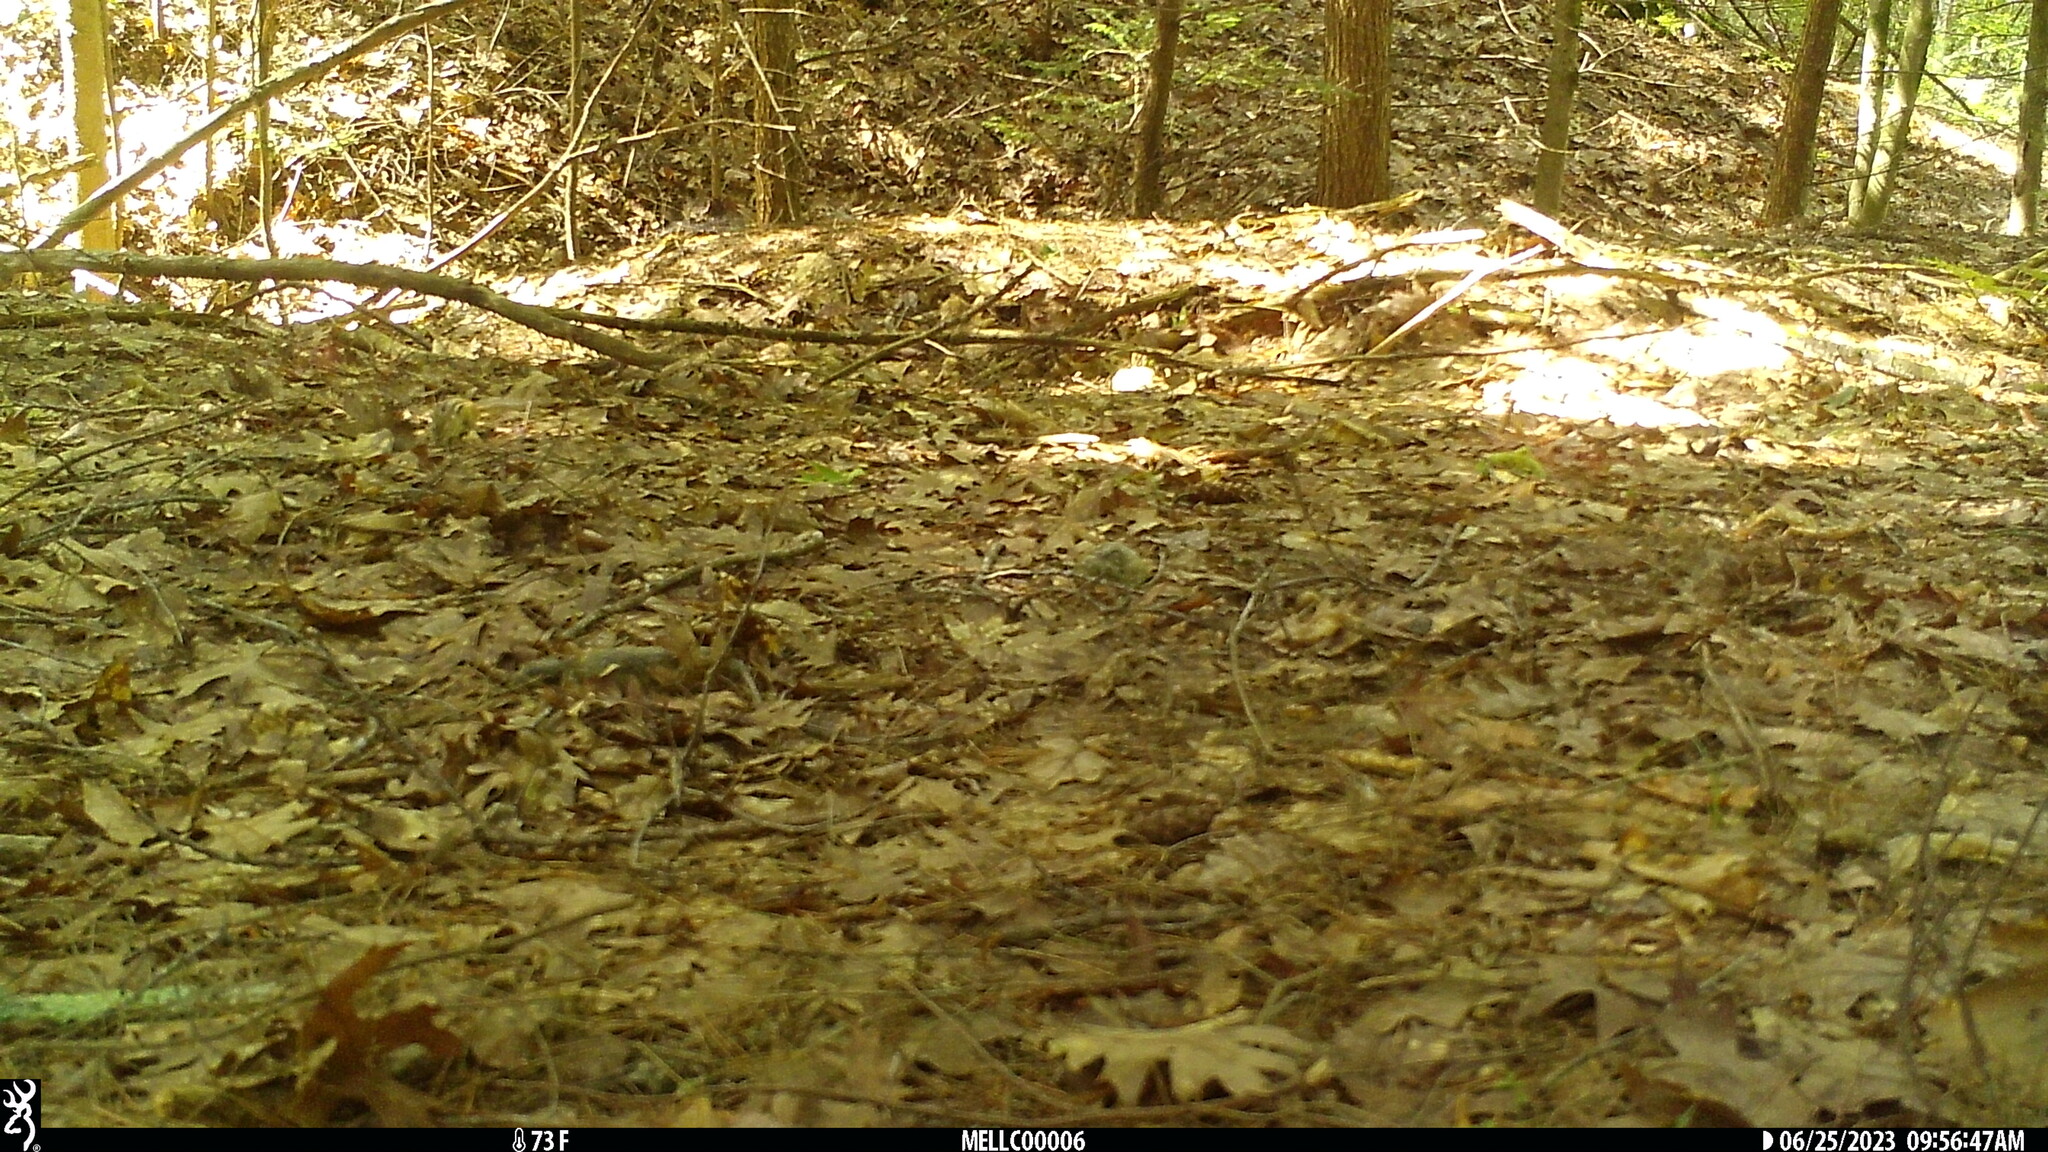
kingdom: Animalia
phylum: Chordata
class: Mammalia
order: Rodentia
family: Sciuridae
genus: Tamias
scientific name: Tamias striatus
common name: Eastern chipmunk
